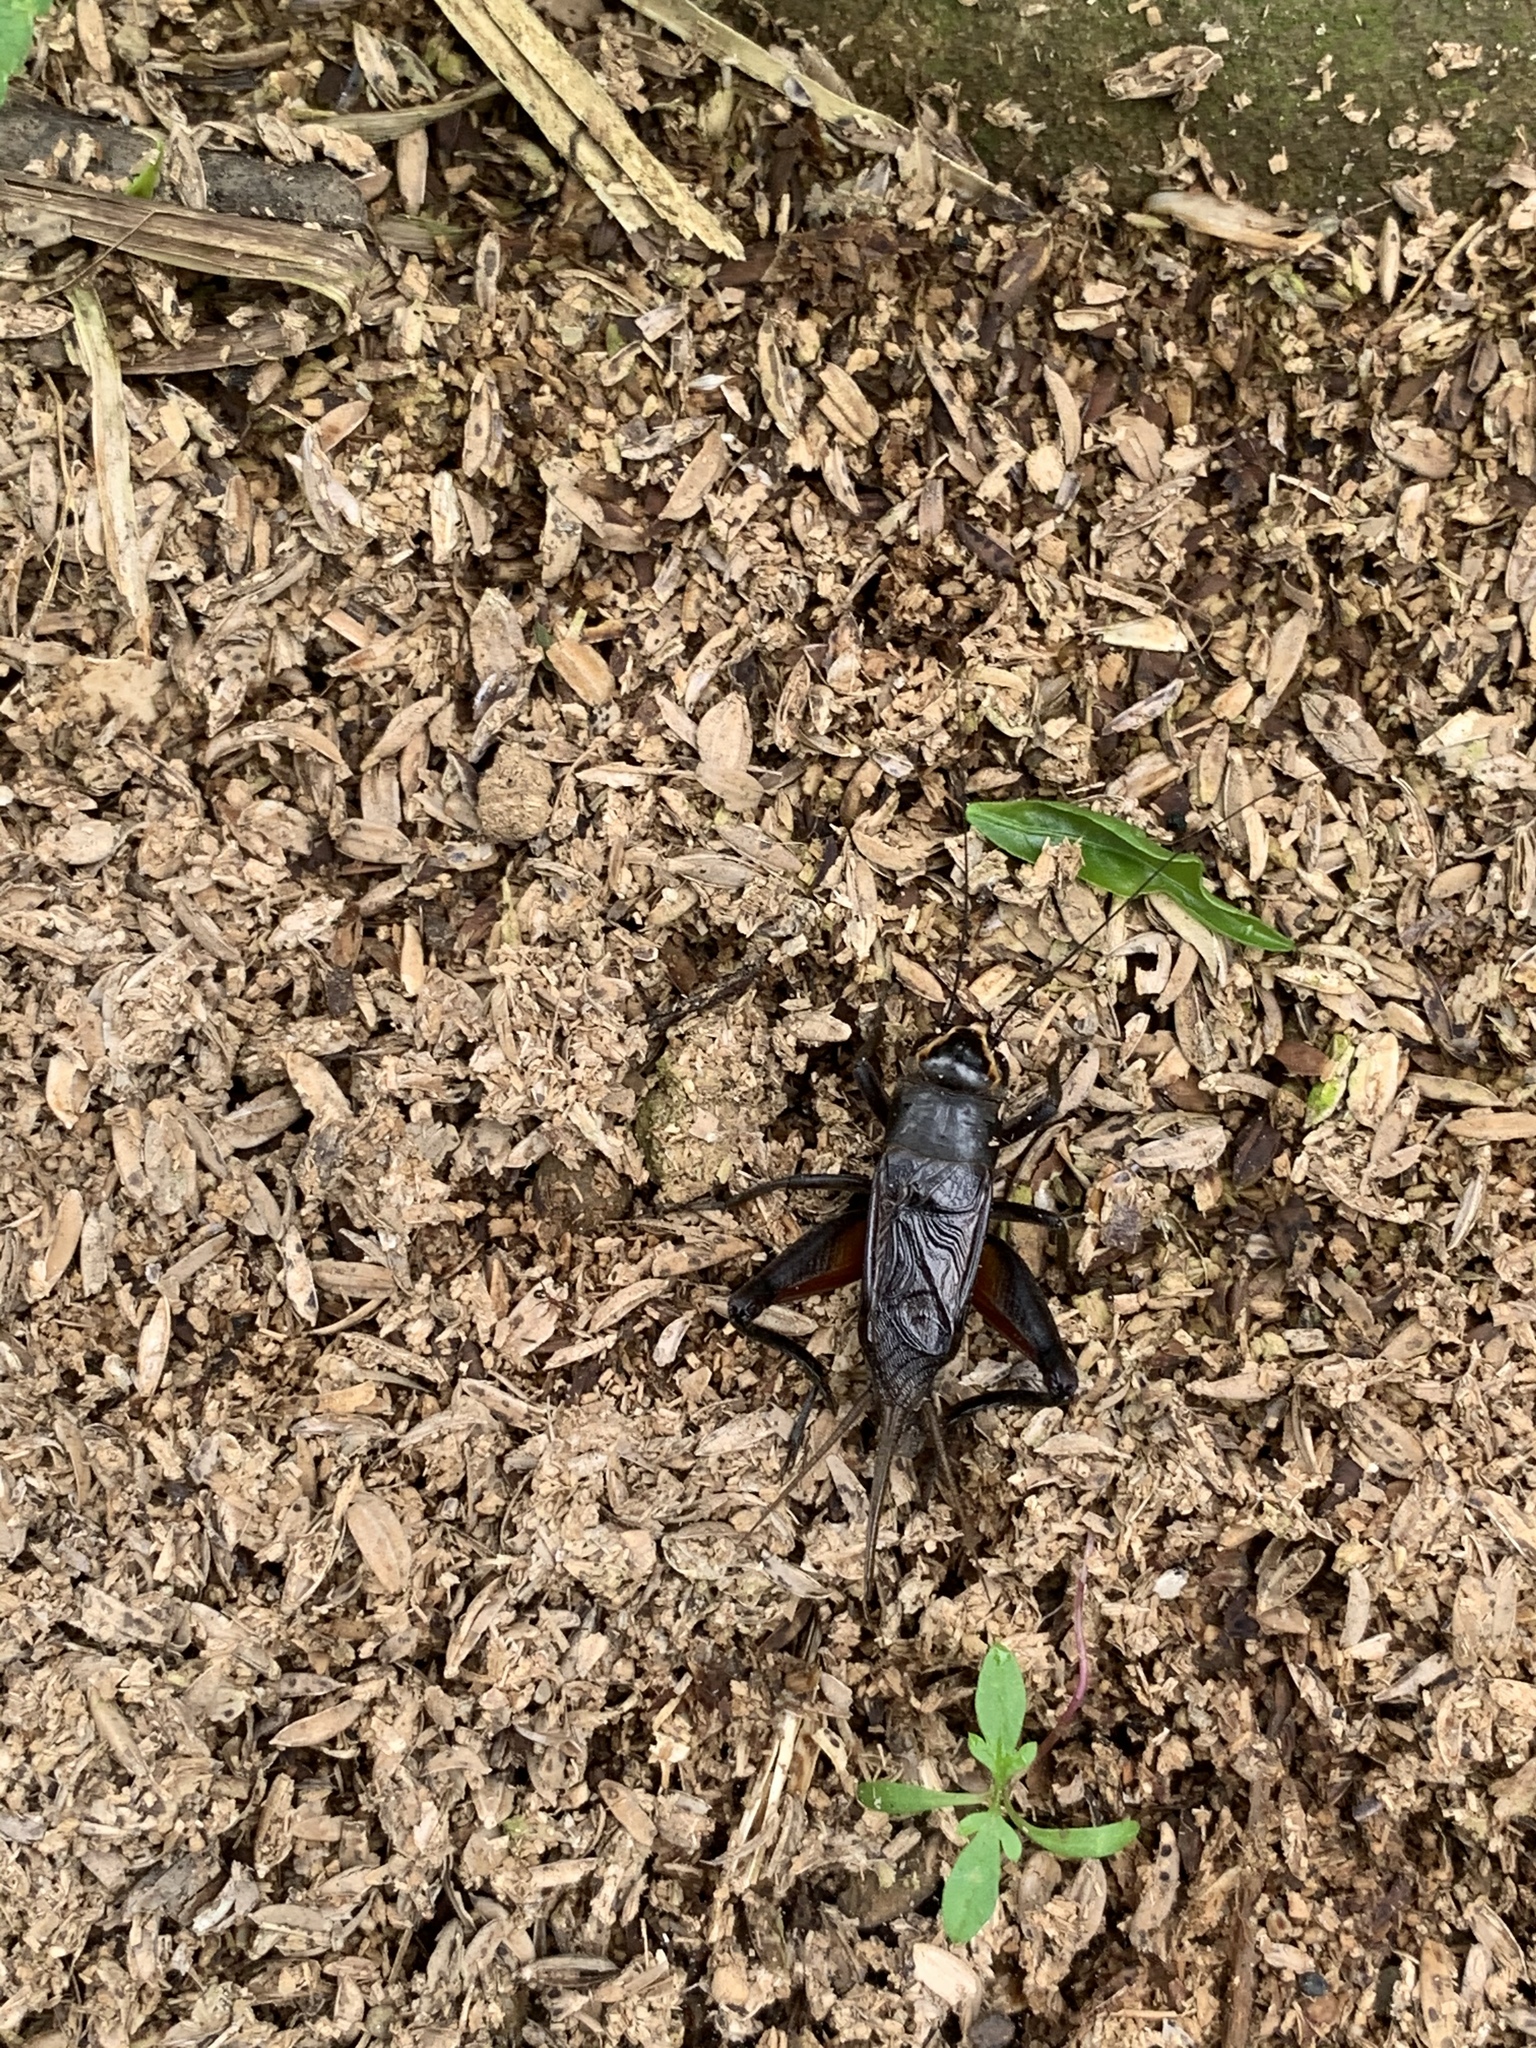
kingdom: Animalia
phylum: Arthropoda
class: Insecta
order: Orthoptera
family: Gryllidae
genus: Teleogryllus
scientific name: Teleogryllus occipitalis
